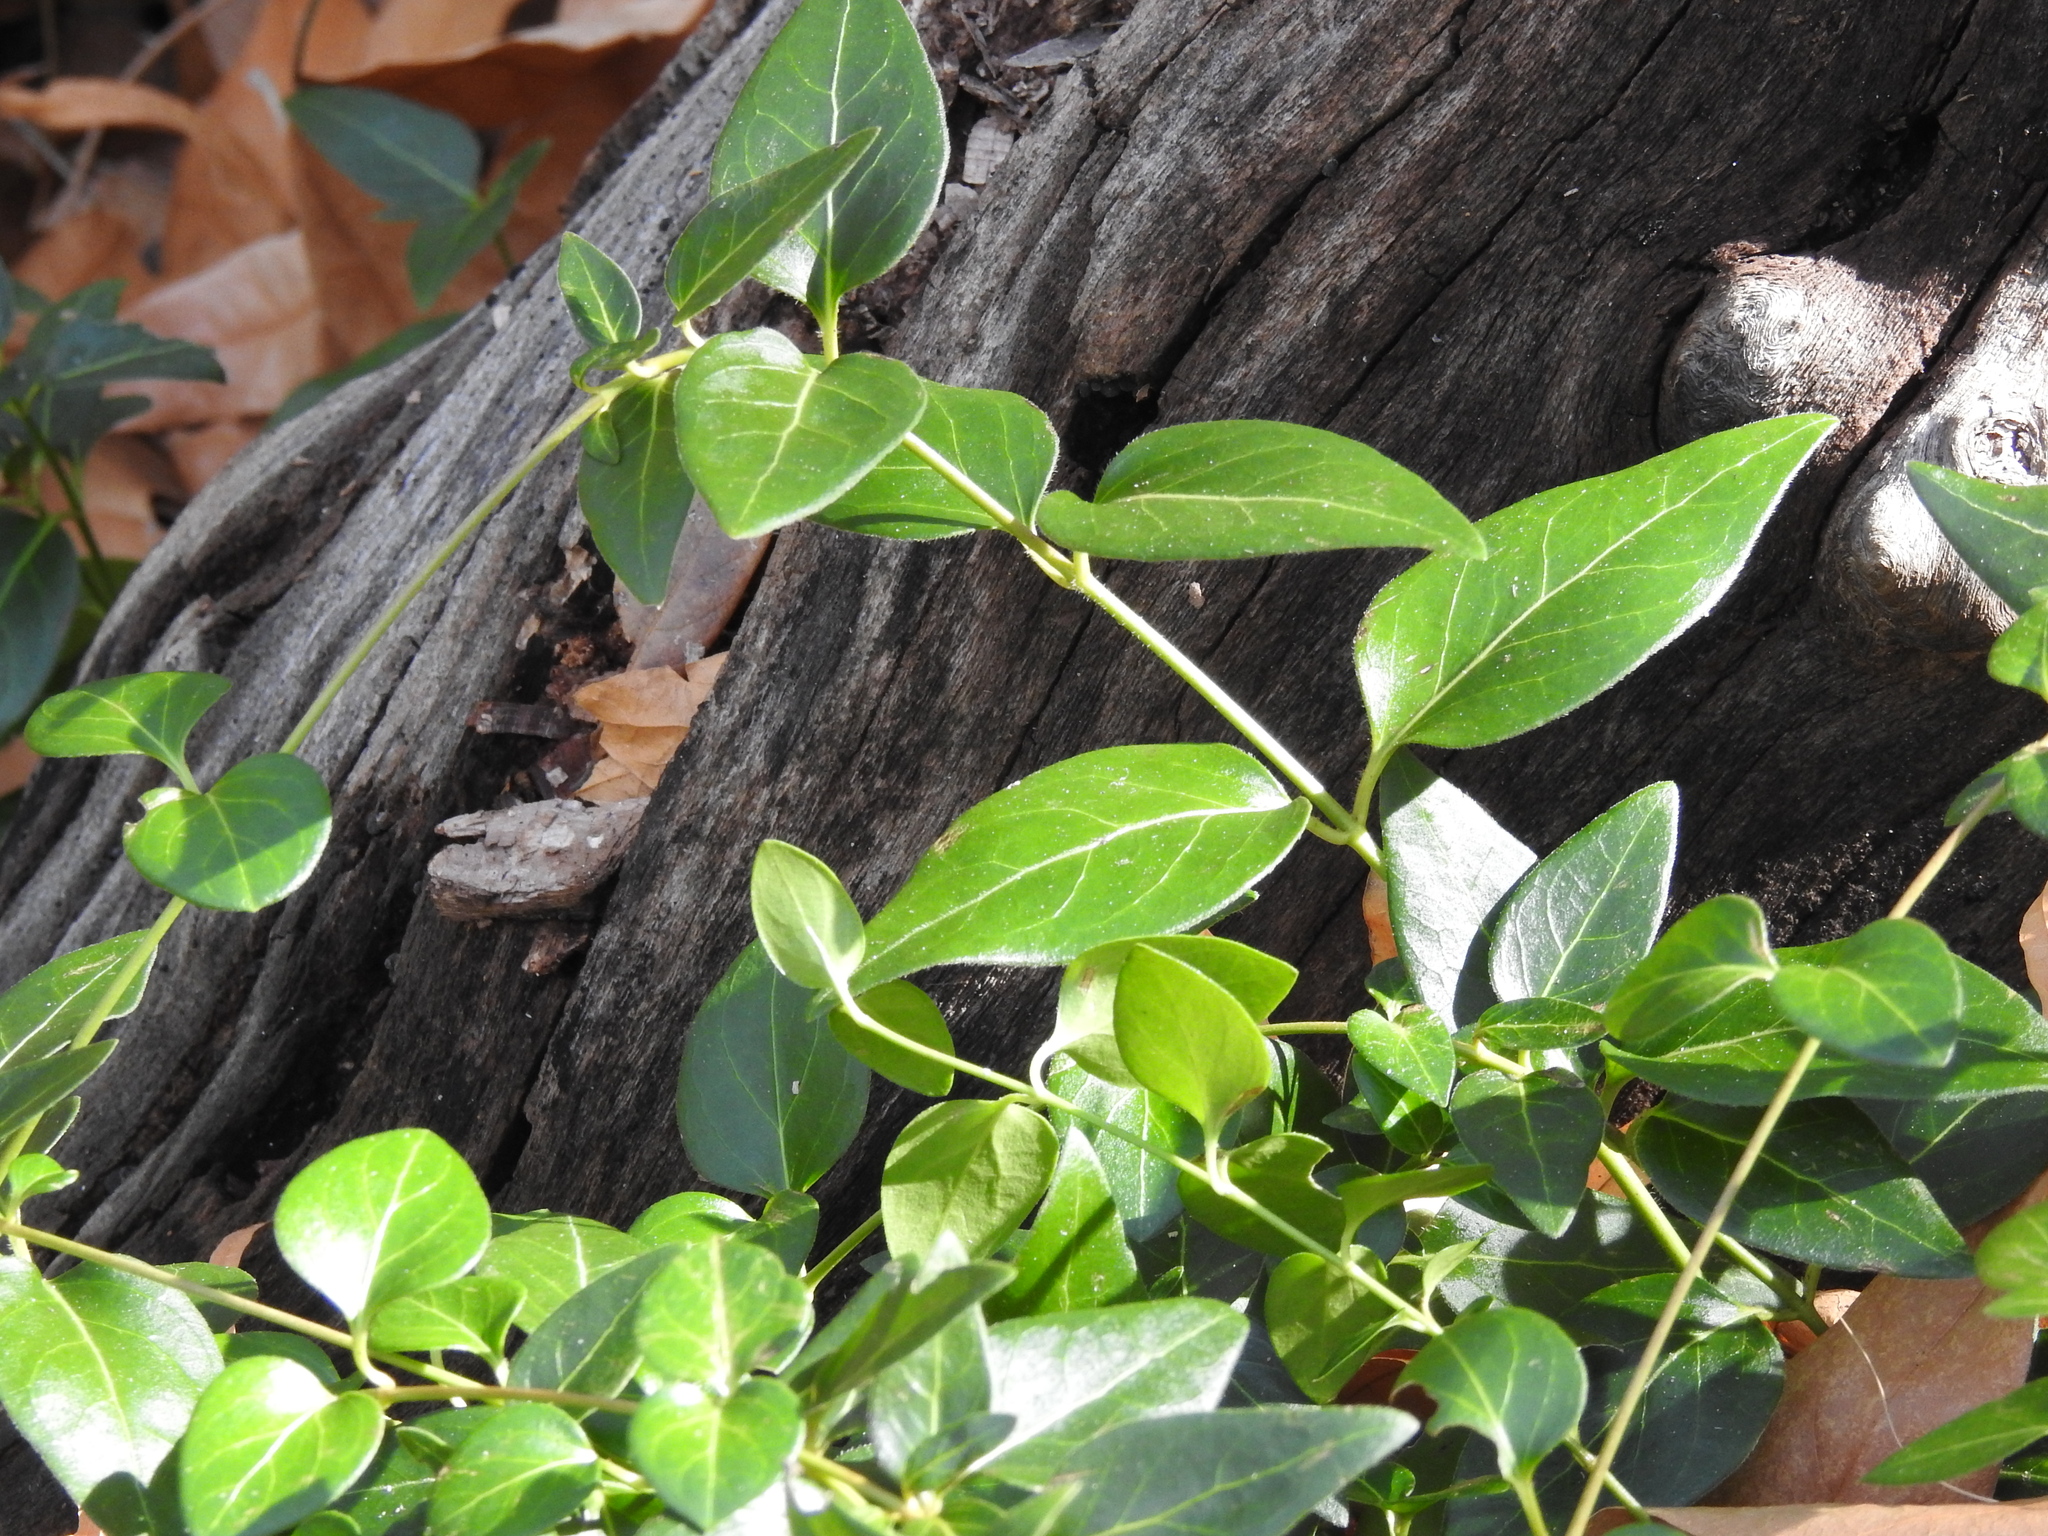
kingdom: Plantae
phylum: Tracheophyta
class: Magnoliopsida
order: Gentianales
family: Apocynaceae
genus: Vinca
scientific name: Vinca major
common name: Greater periwinkle
